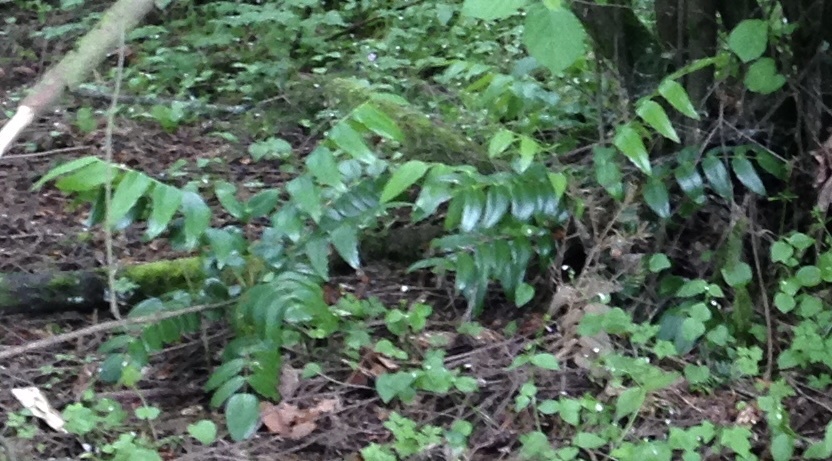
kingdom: Plantae
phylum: Tracheophyta
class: Magnoliopsida
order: Ranunculales
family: Berberidaceae
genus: Mahonia
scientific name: Mahonia nervosa
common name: Cascade oregon-grape
